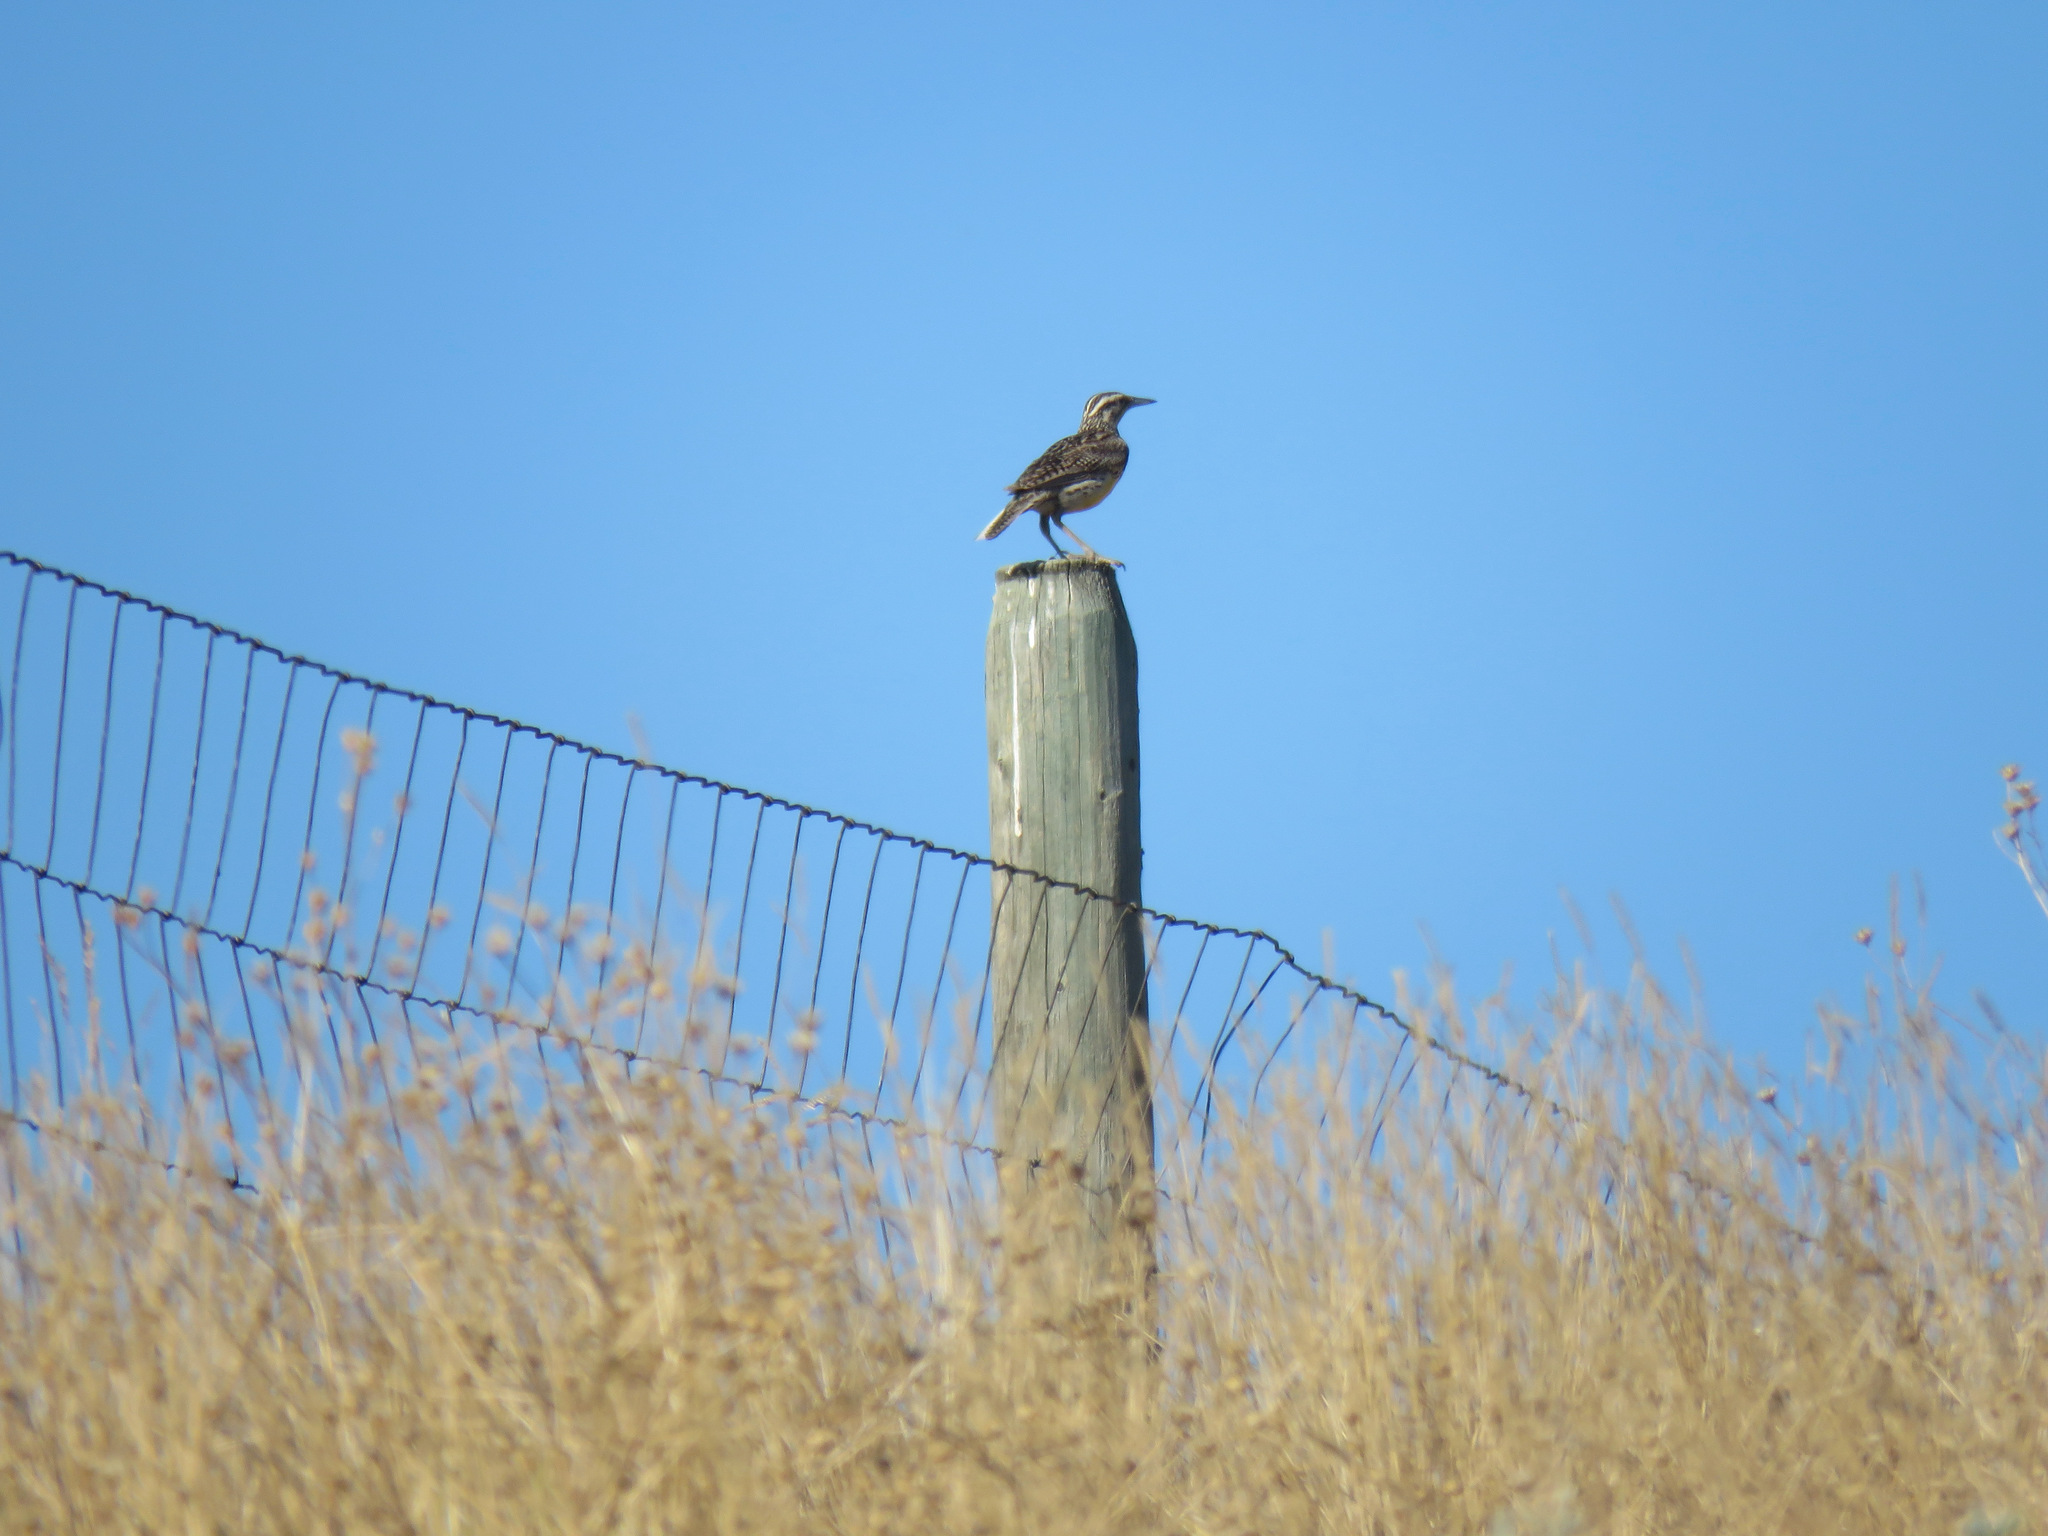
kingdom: Animalia
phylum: Chordata
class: Aves
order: Passeriformes
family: Icteridae
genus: Sturnella
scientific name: Sturnella neglecta
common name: Western meadowlark
